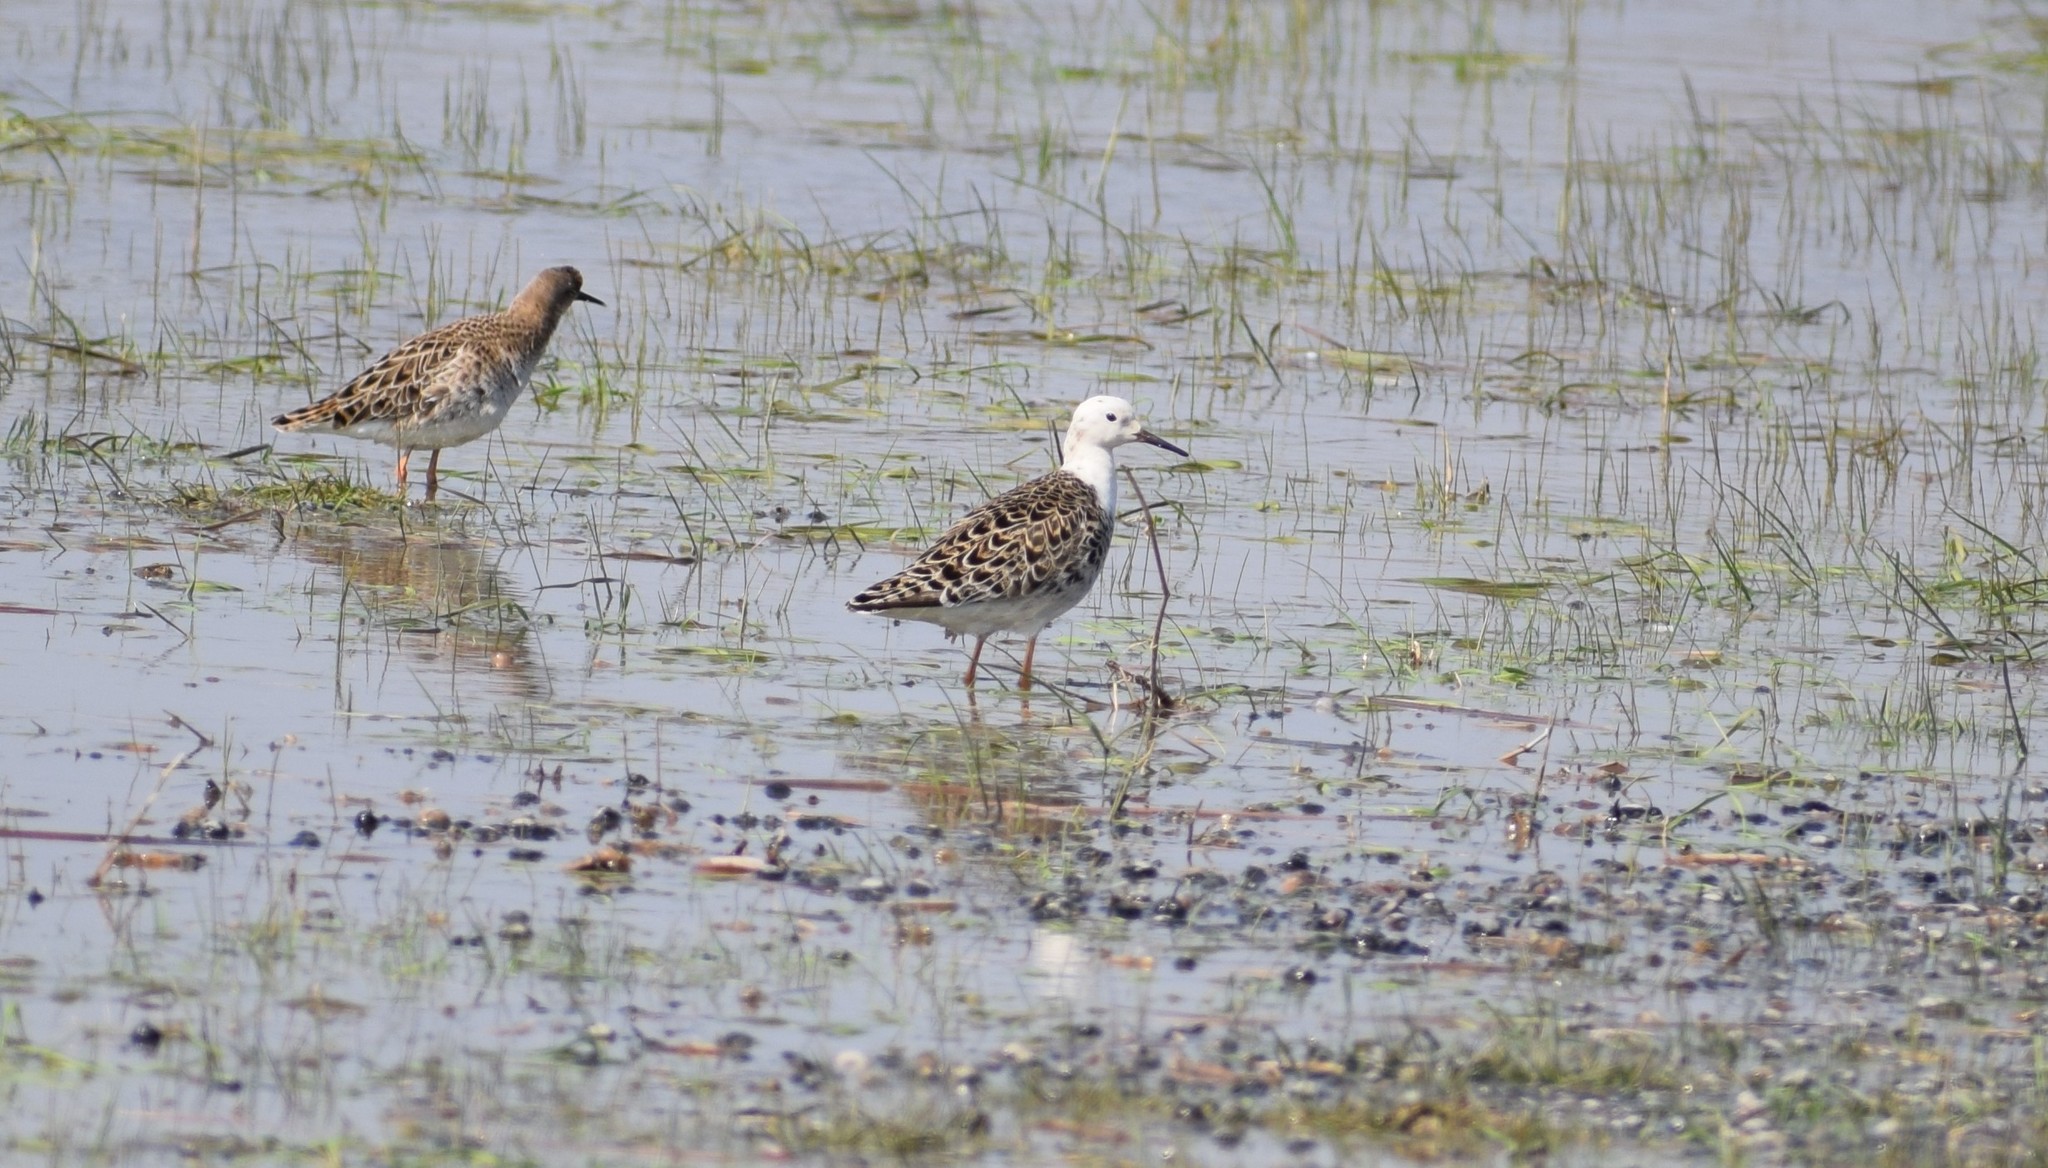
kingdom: Animalia
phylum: Chordata
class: Aves
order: Charadriiformes
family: Scolopacidae
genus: Calidris
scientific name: Calidris pugnax
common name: Ruff
